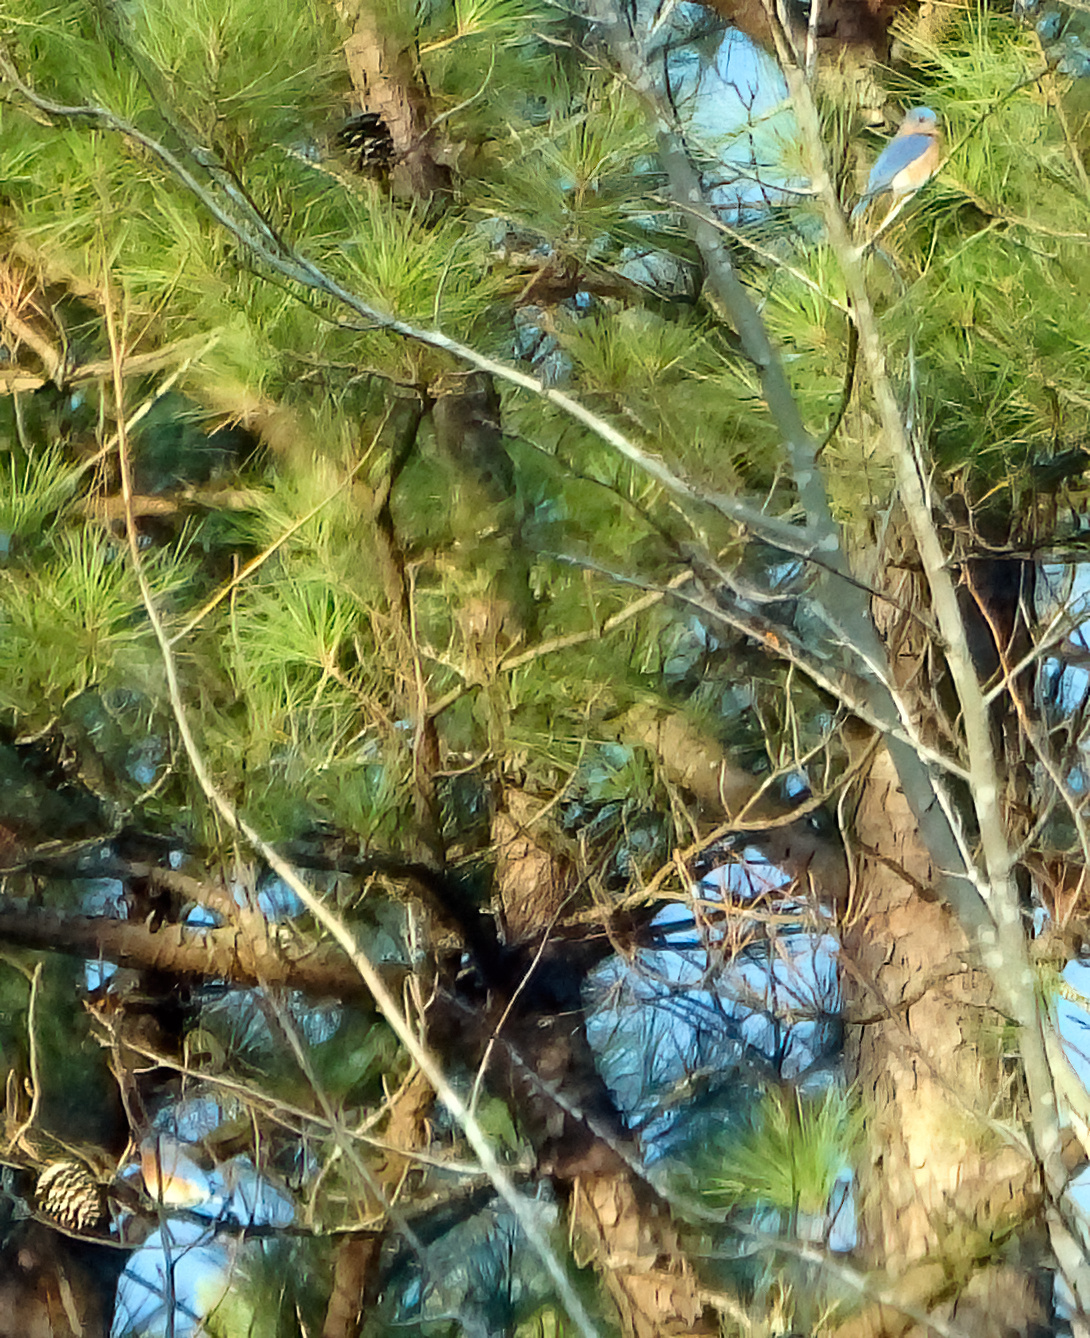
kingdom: Animalia
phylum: Chordata
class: Aves
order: Passeriformes
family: Turdidae
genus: Sialia
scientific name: Sialia sialis
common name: Eastern bluebird
